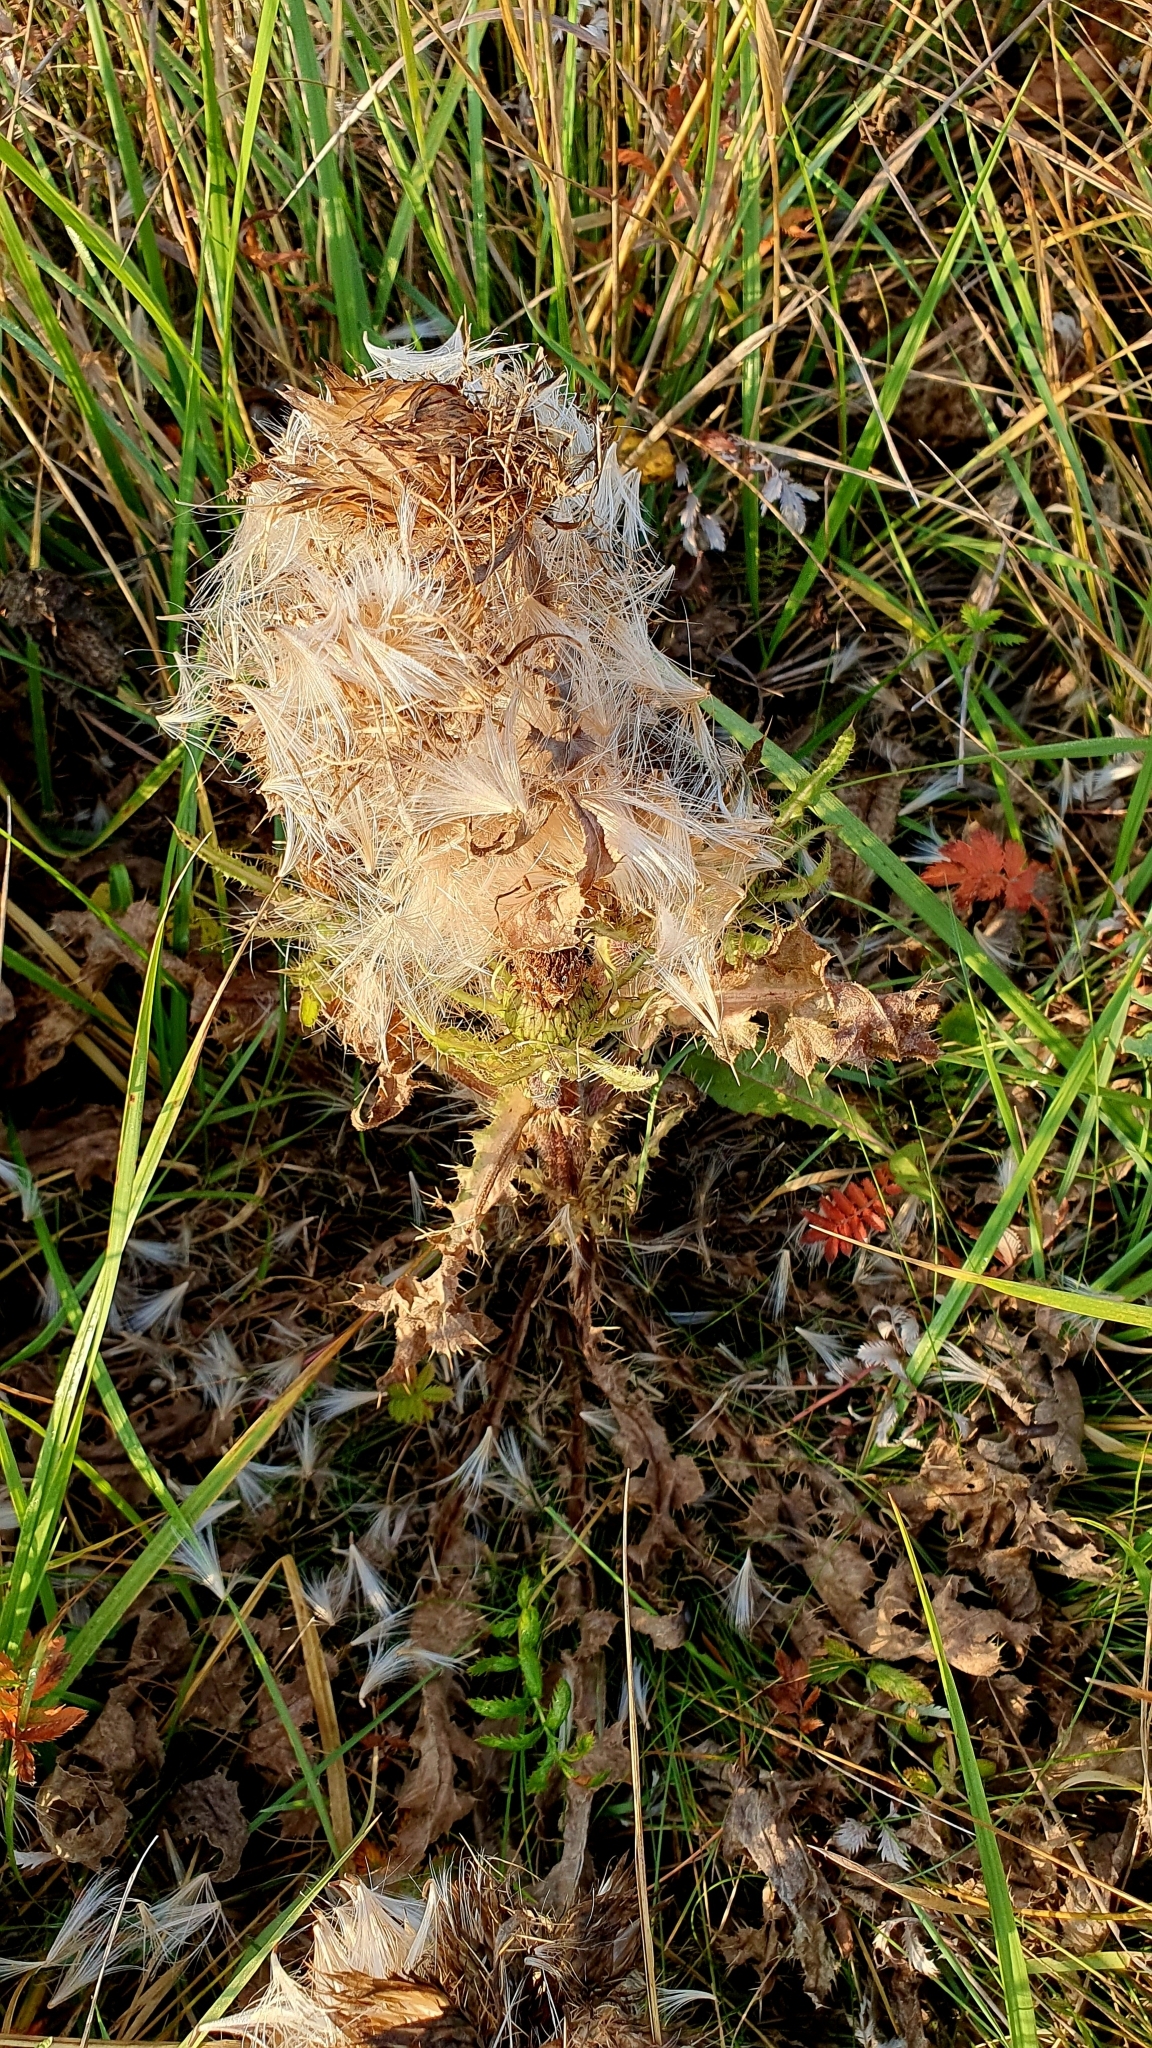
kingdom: Plantae
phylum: Tracheophyta
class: Magnoliopsida
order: Asterales
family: Asteraceae
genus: Cirsium
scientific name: Cirsium esculentum
